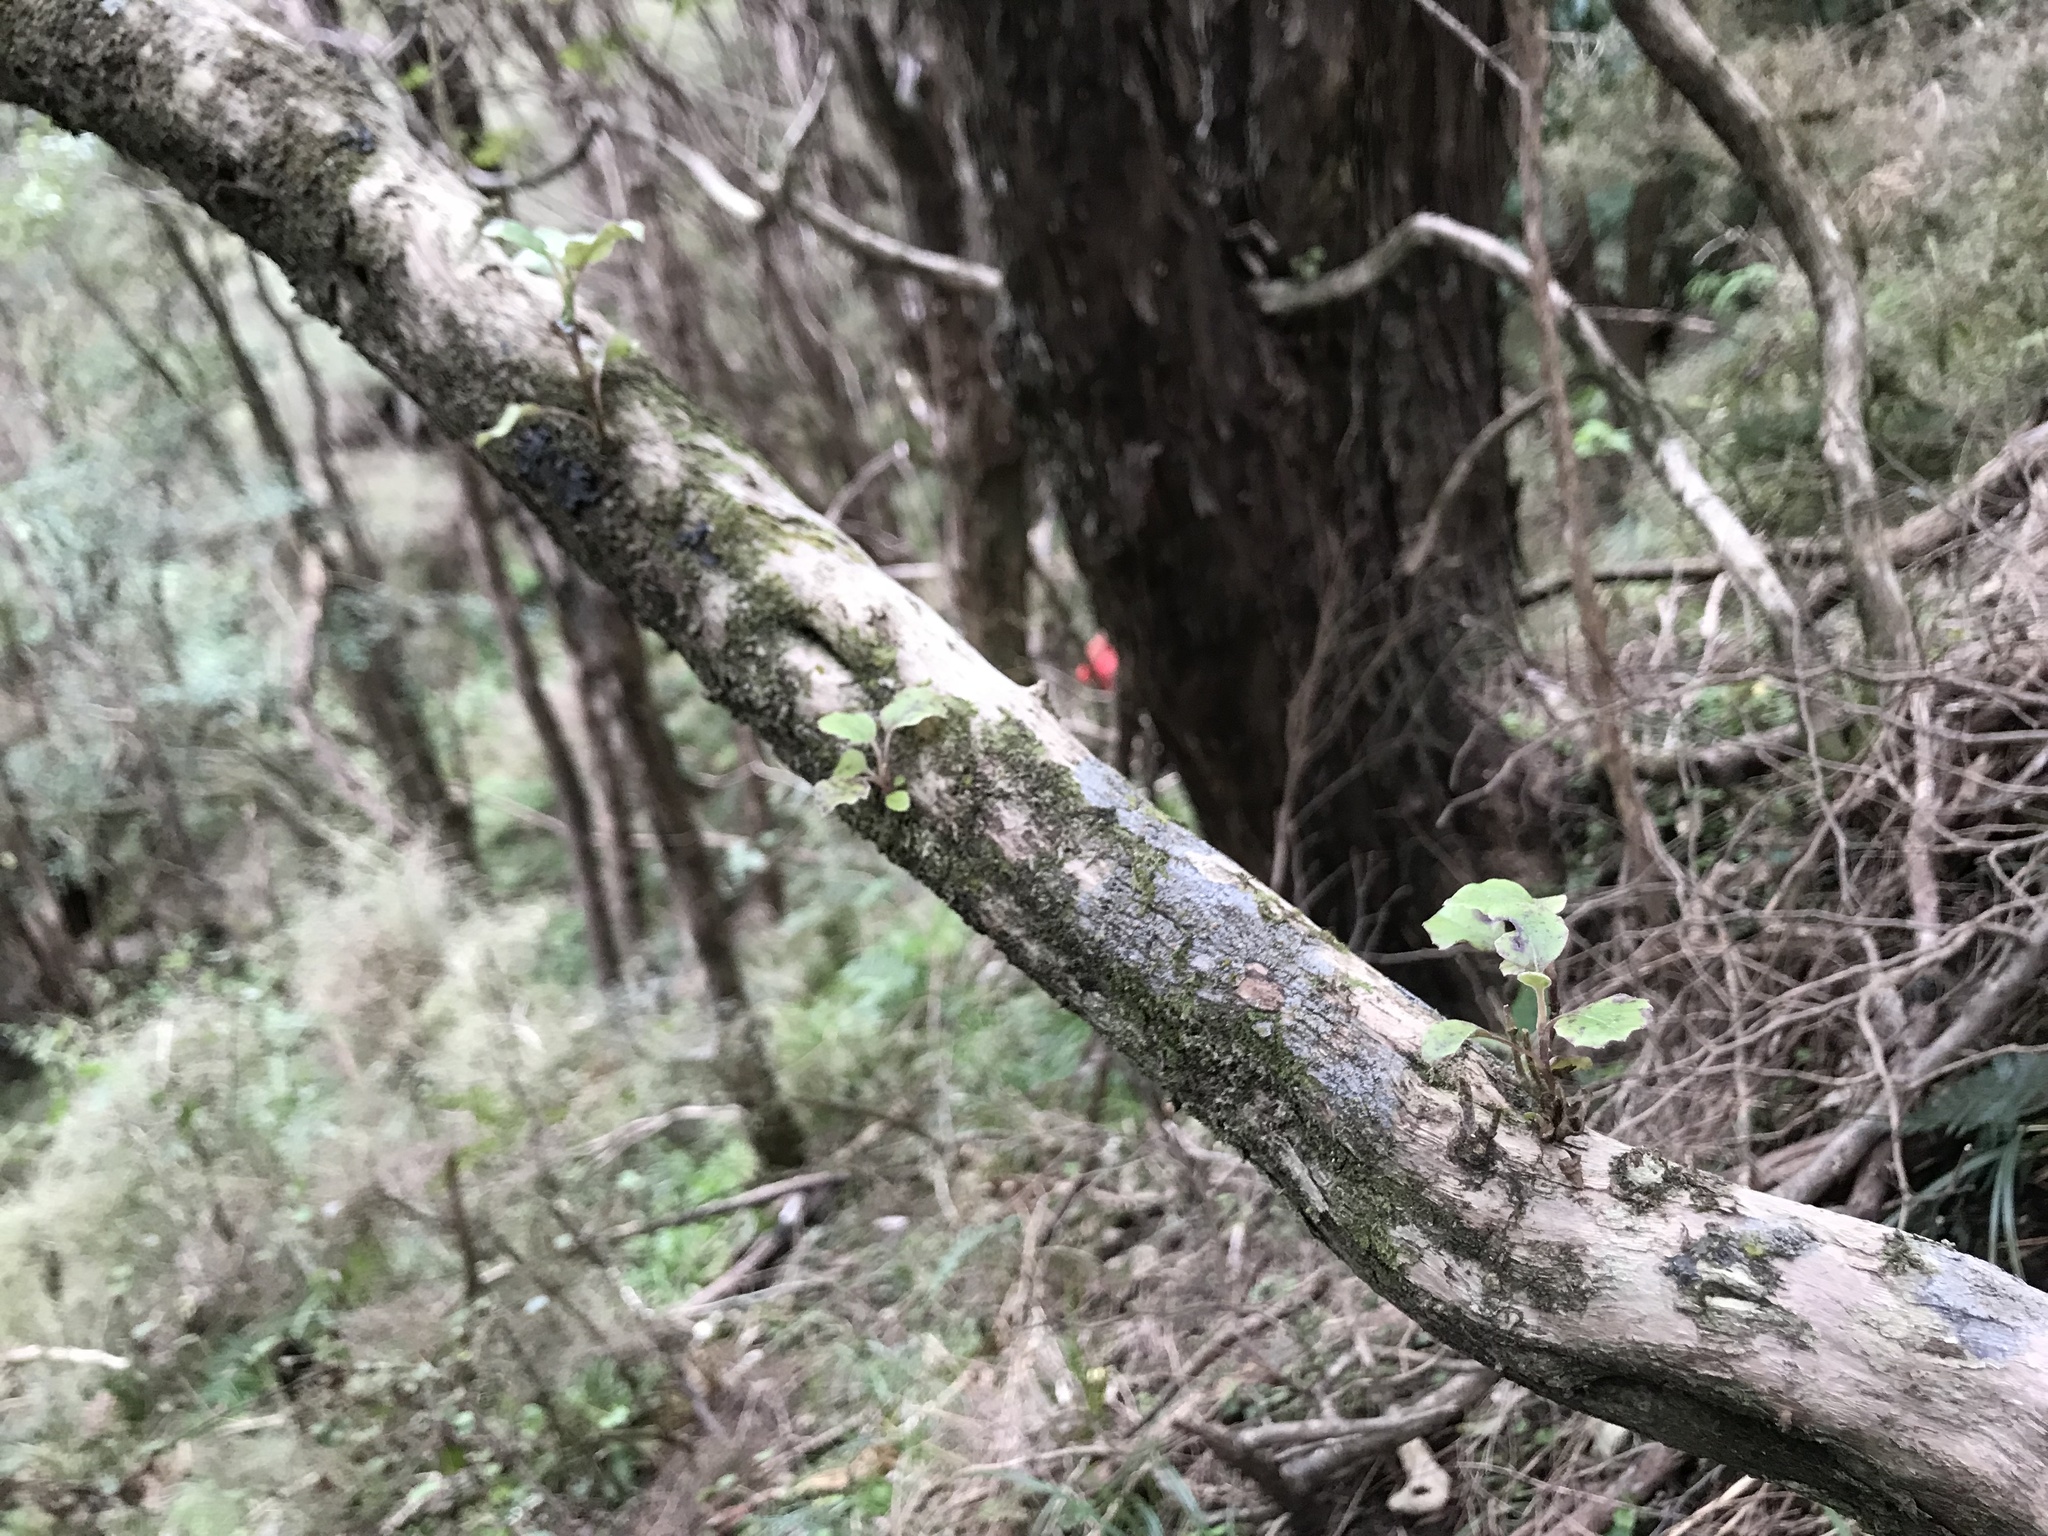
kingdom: Plantae
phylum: Tracheophyta
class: Magnoliopsida
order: Asterales
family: Asteraceae
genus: Brachyglottis
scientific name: Brachyglottis pentacopa
